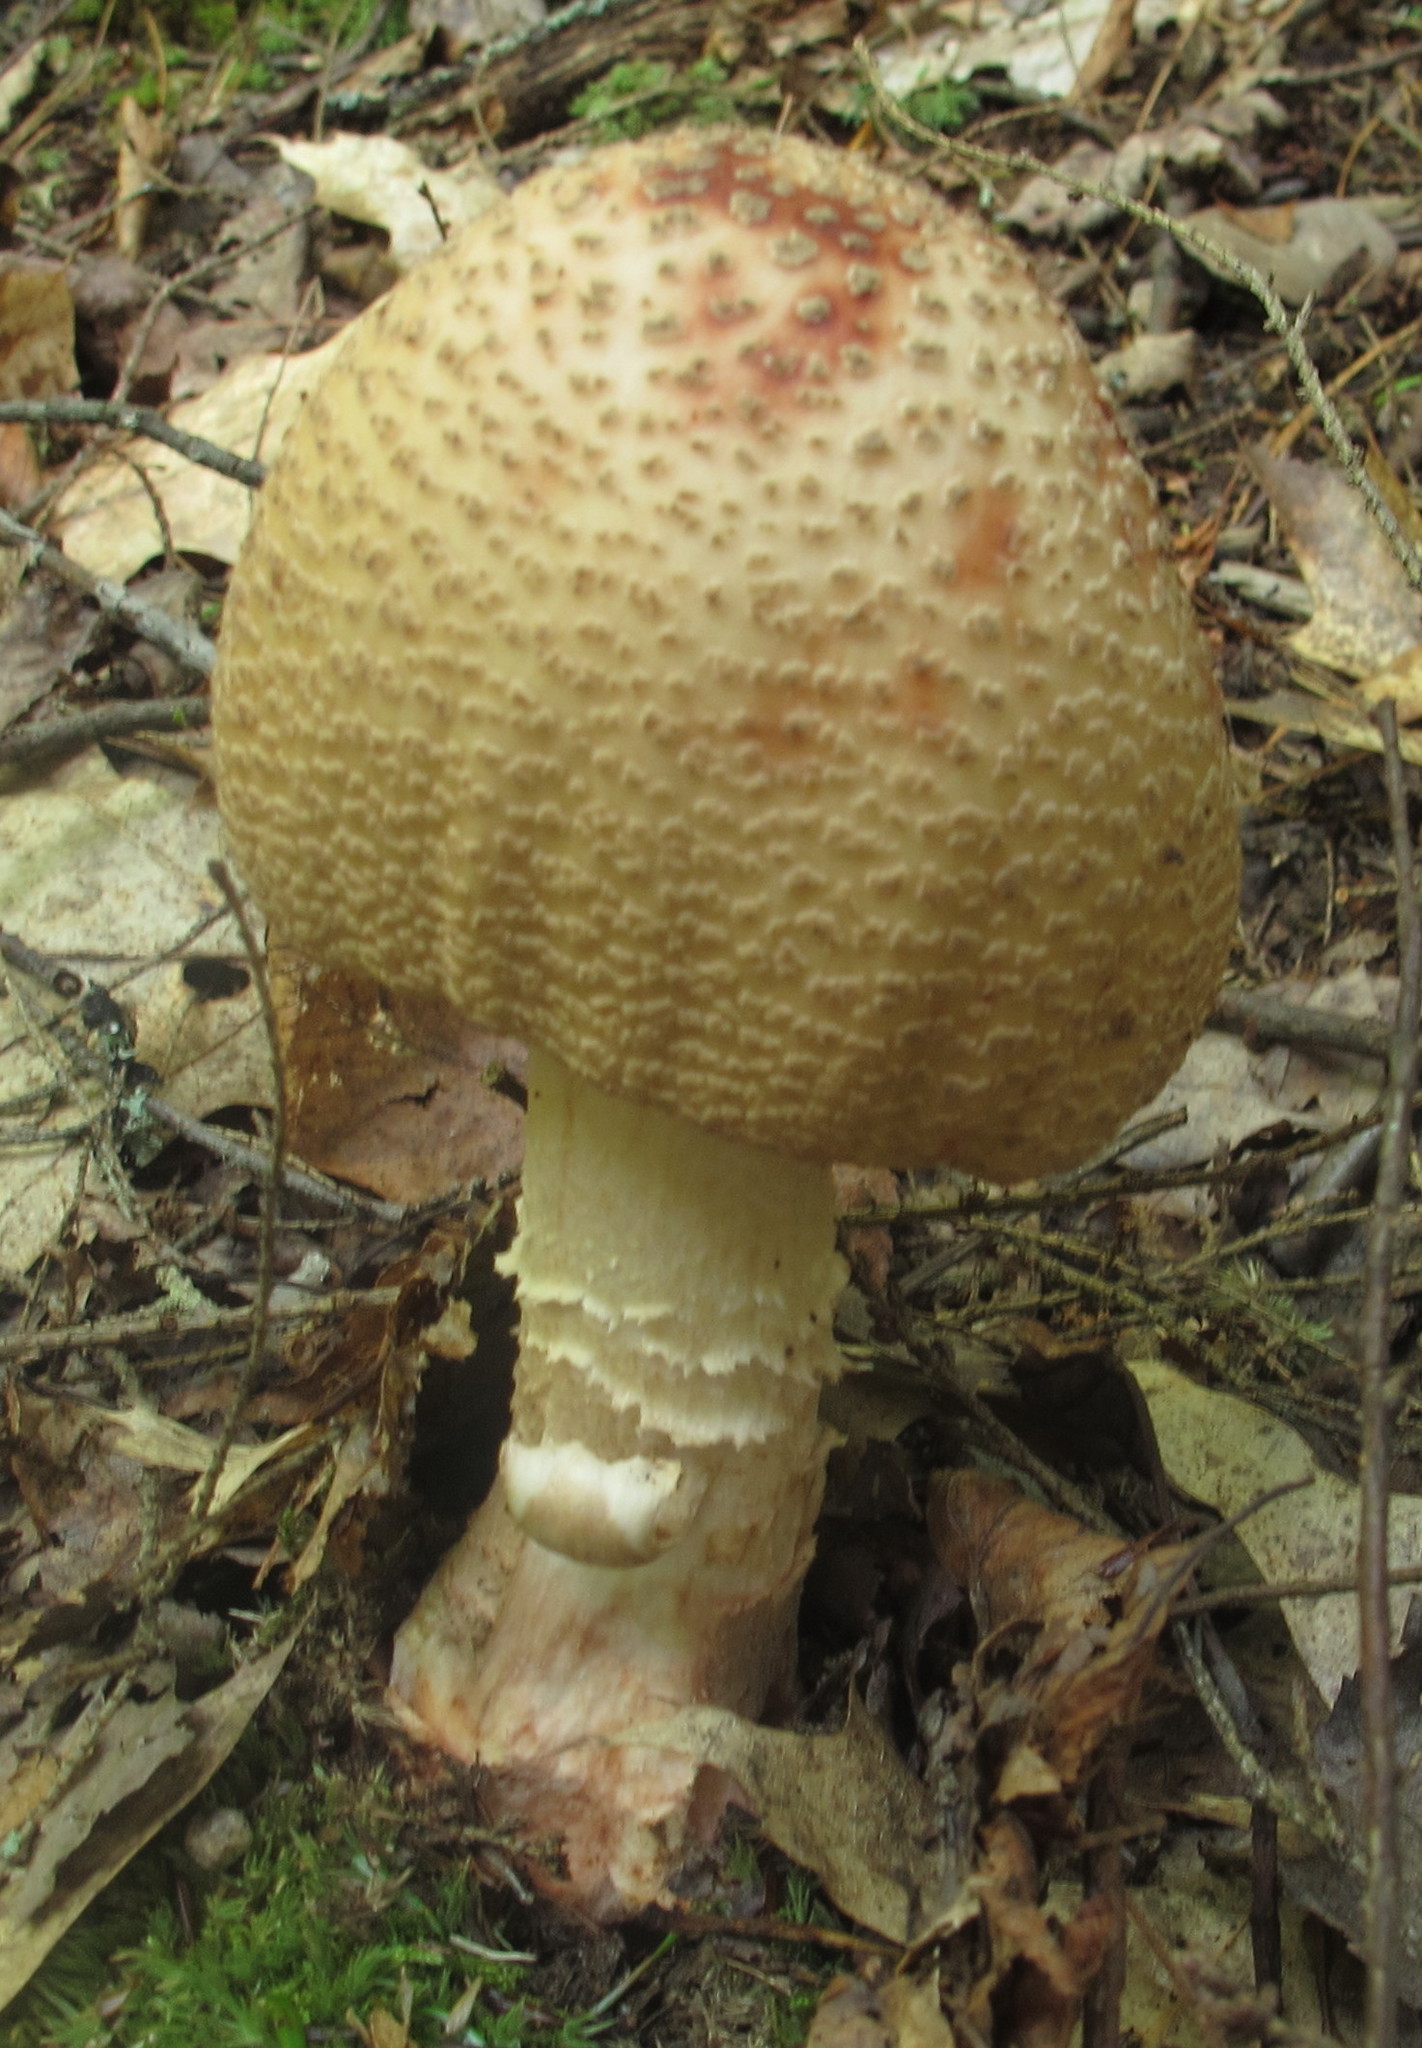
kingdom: Fungi
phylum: Basidiomycota
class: Agaricomycetes
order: Agaricales
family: Amanitaceae
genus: Amanita
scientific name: Amanita rubescens
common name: Blusher
